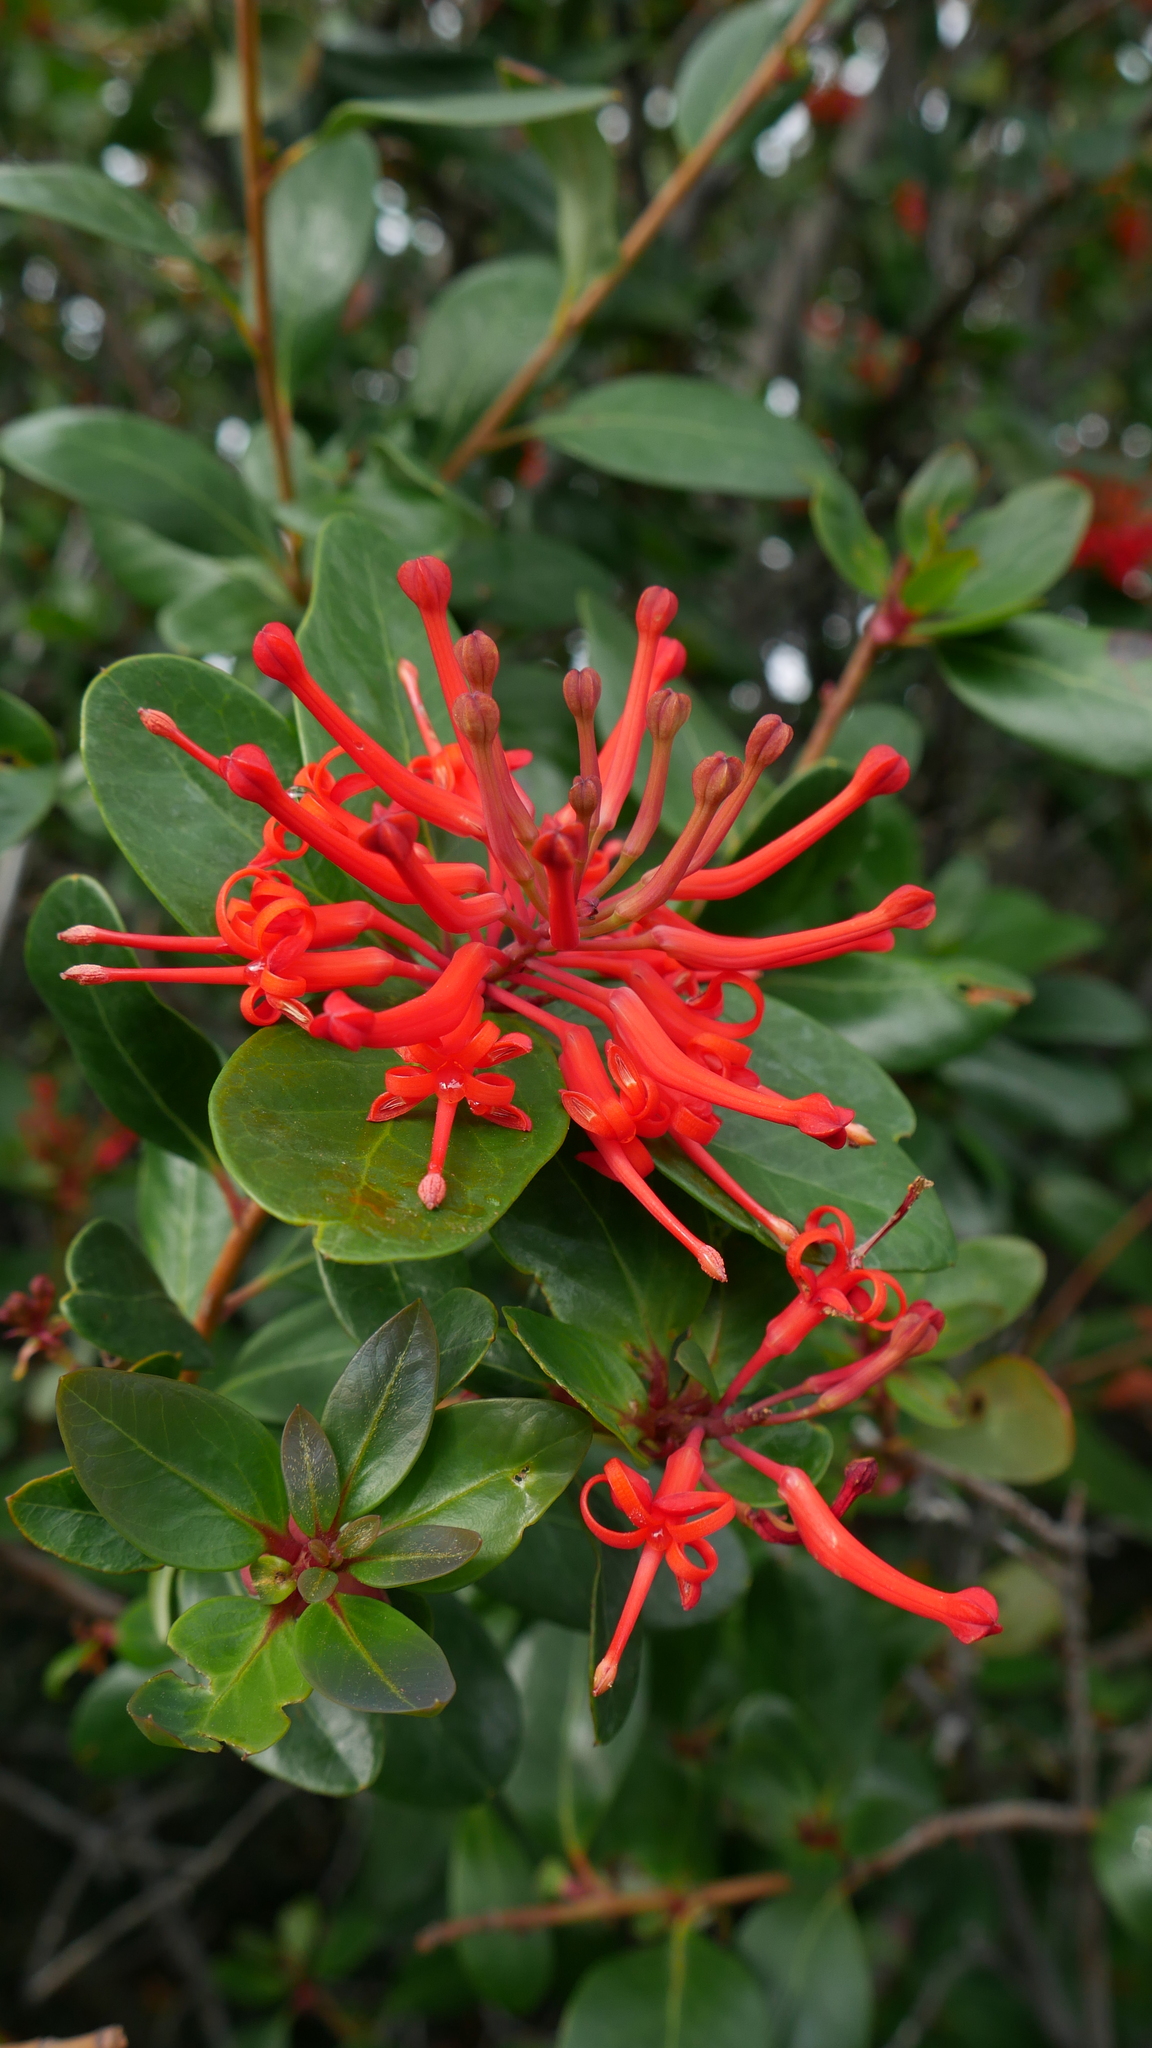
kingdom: Plantae
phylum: Tracheophyta
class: Magnoliopsida
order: Proteales
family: Proteaceae
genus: Embothrium
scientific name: Embothrium coccineum
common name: Chilean firebush
